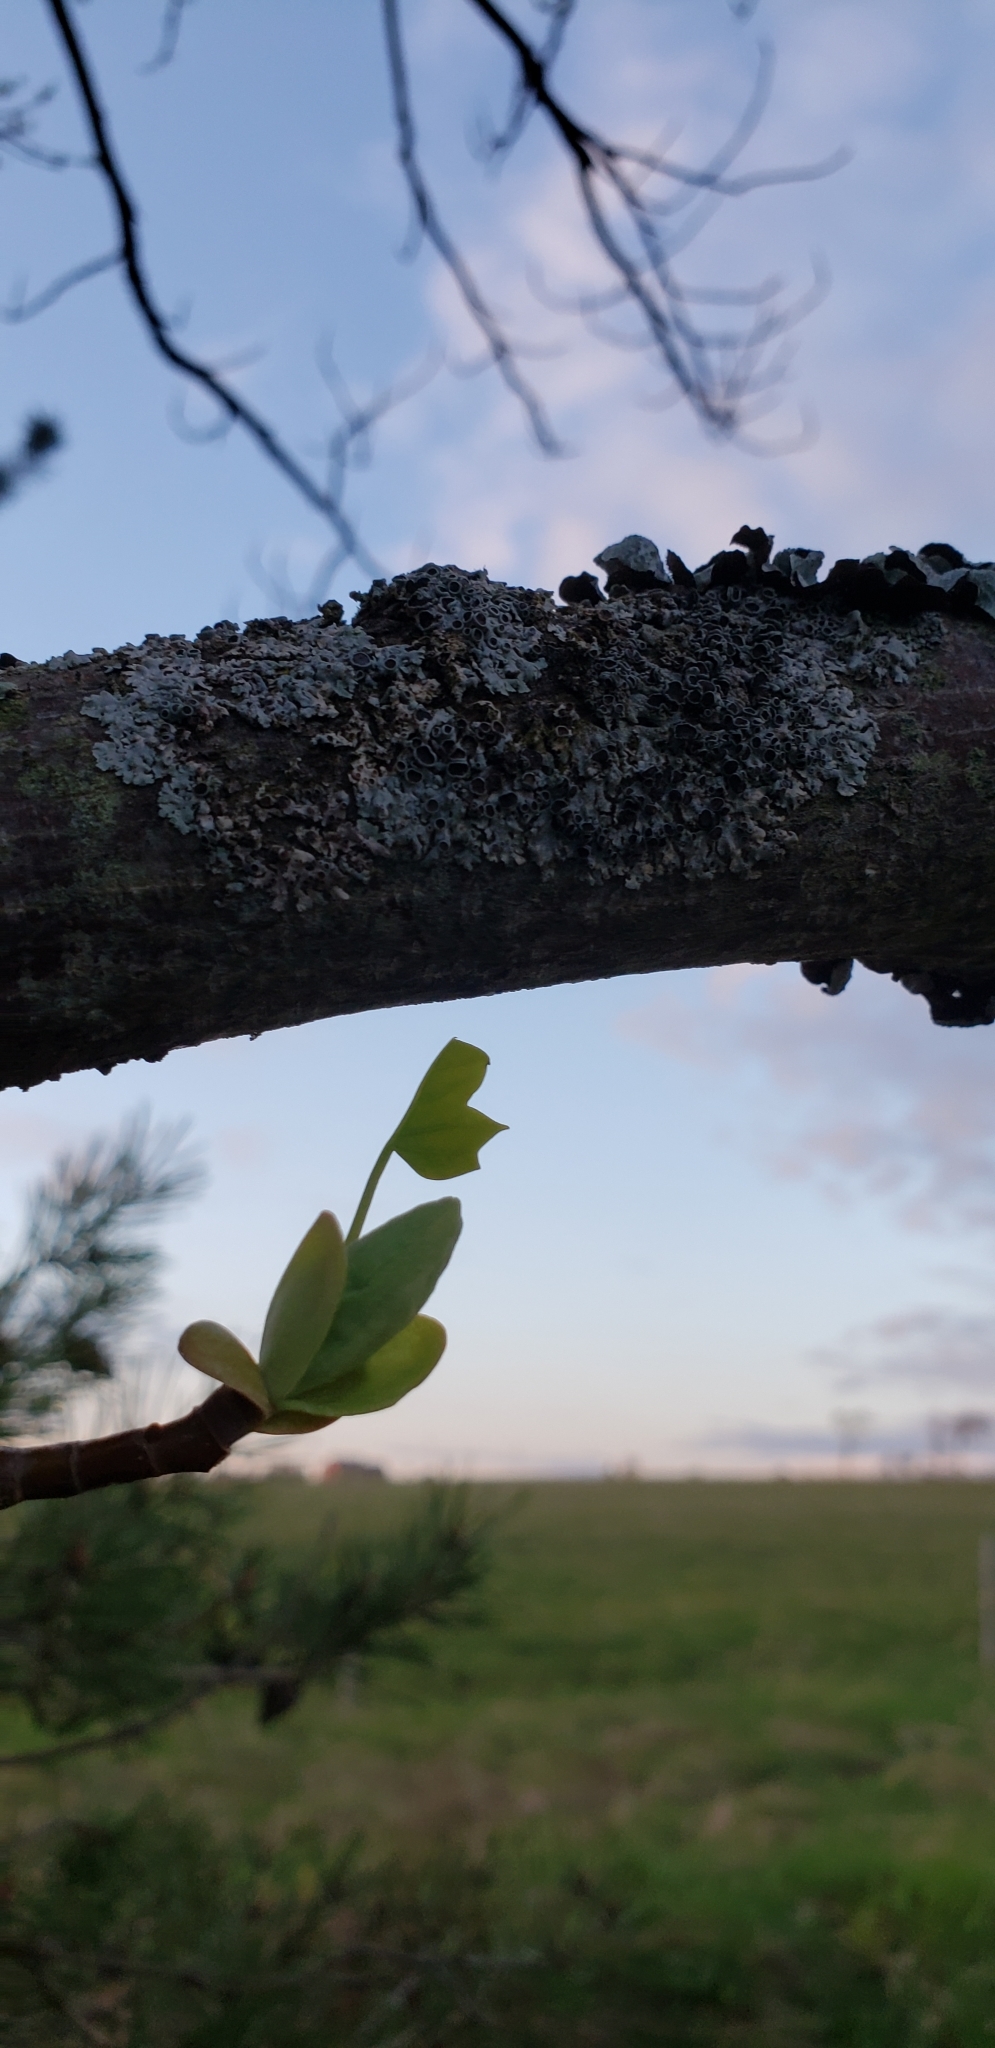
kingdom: Plantae
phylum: Tracheophyta
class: Magnoliopsida
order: Magnoliales
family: Magnoliaceae
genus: Liriodendron
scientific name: Liriodendron tulipifera
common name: Tulip tree
